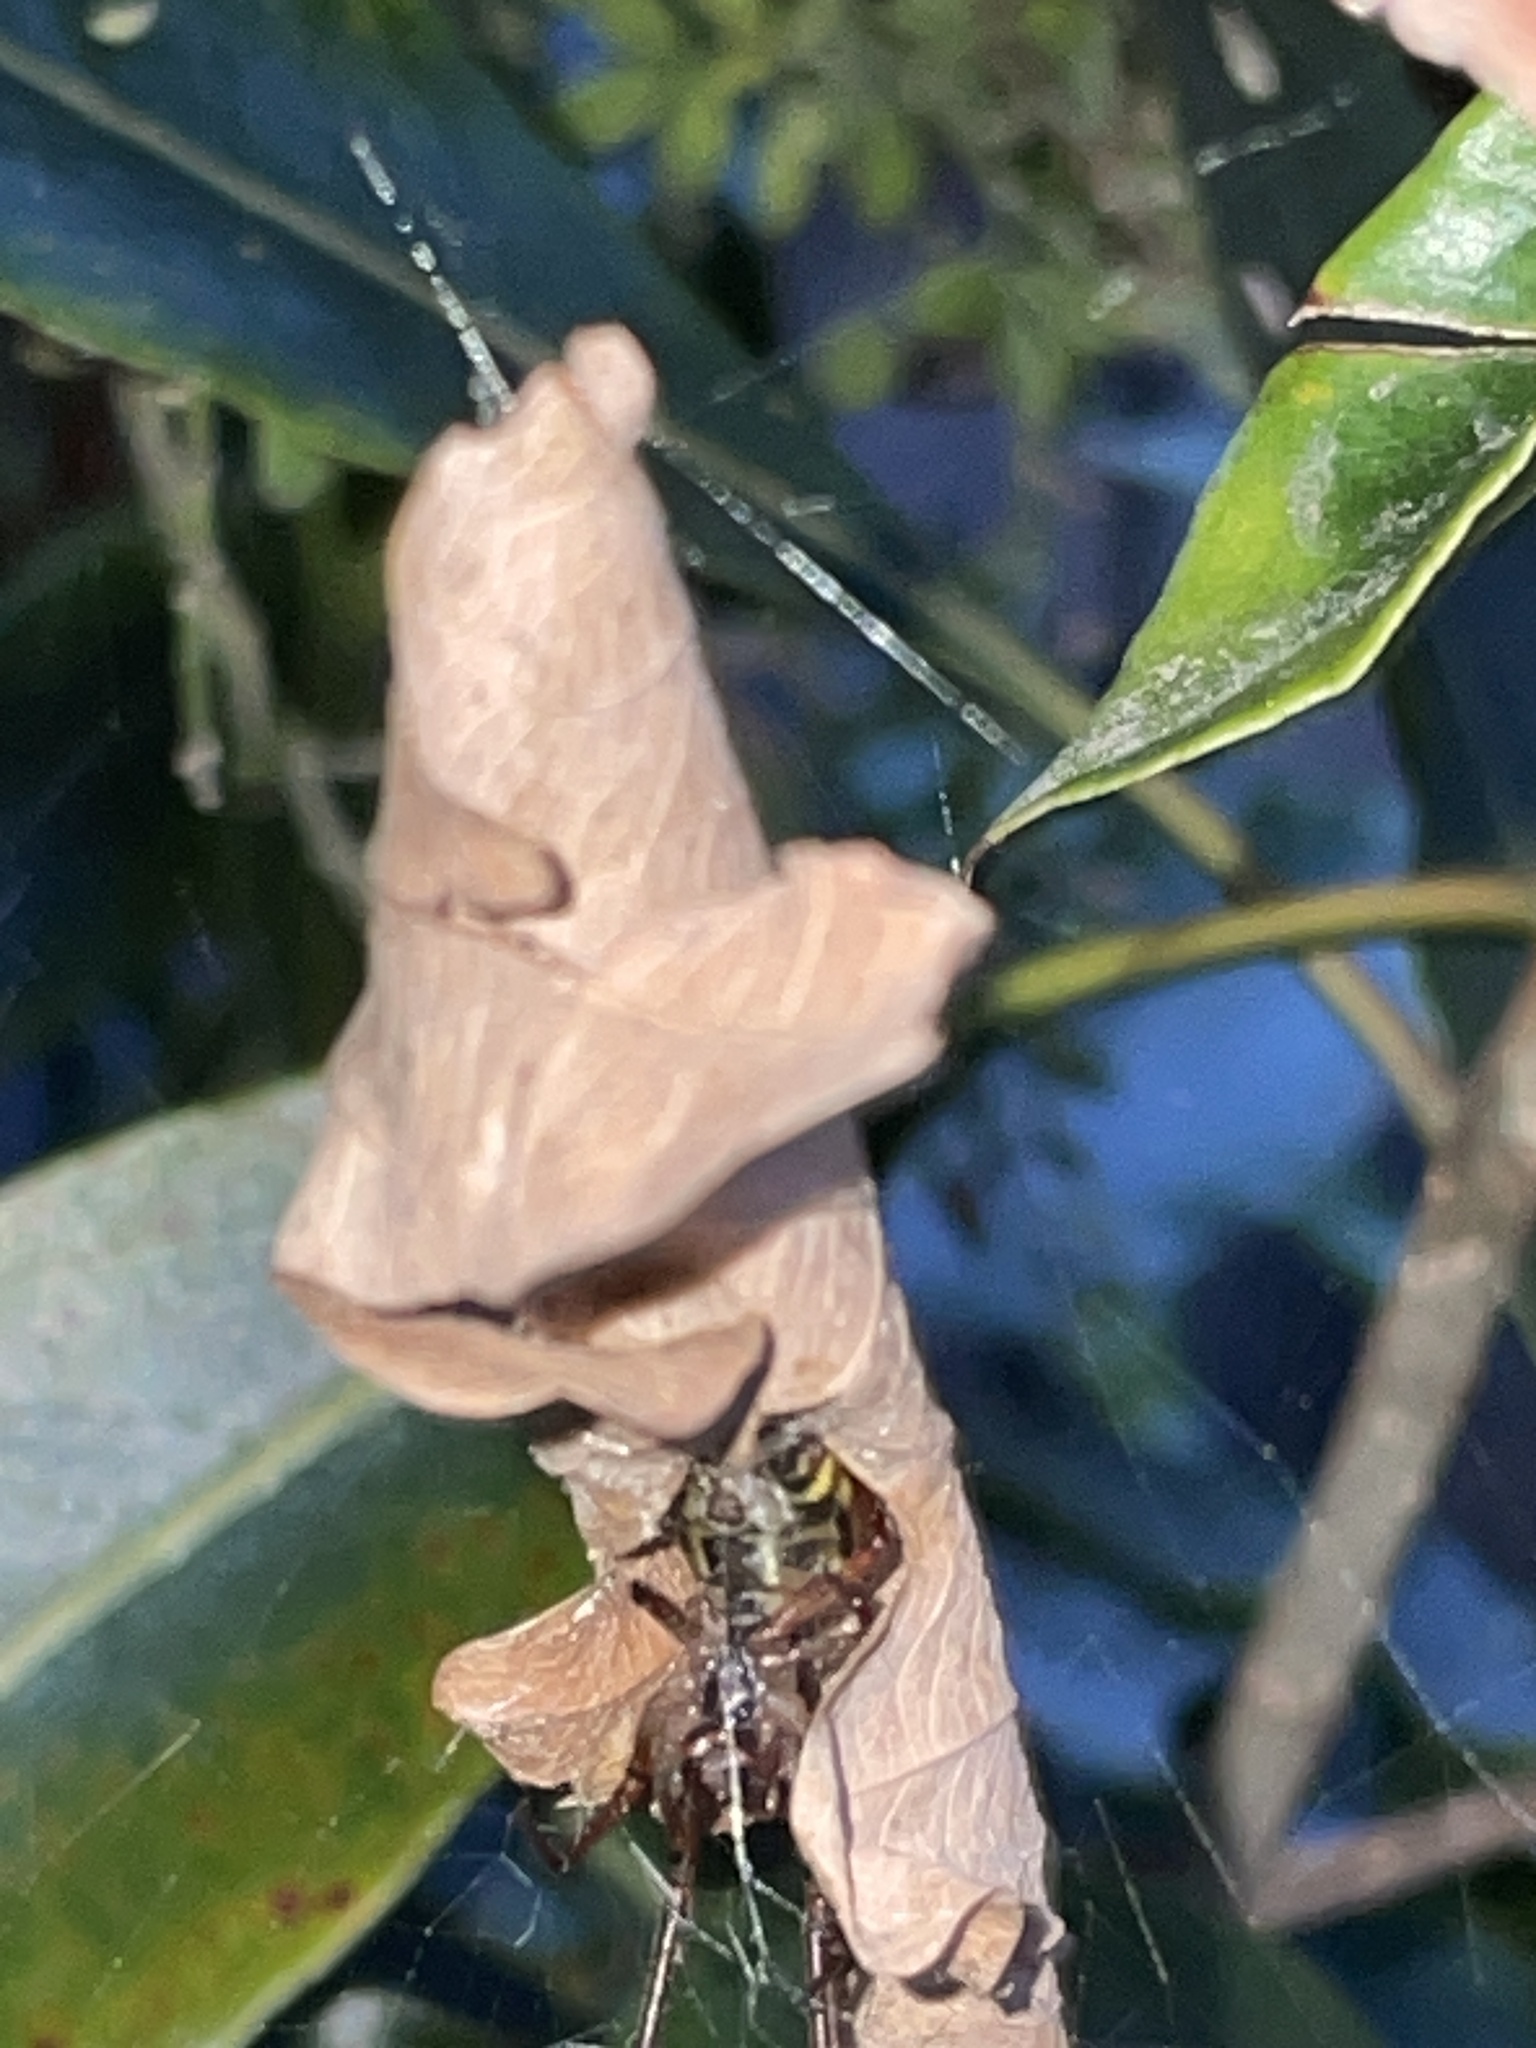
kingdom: Animalia
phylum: Arthropoda
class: Arachnida
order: Araneae
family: Araneidae
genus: Phonognatha
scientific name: Phonognatha graeffei
